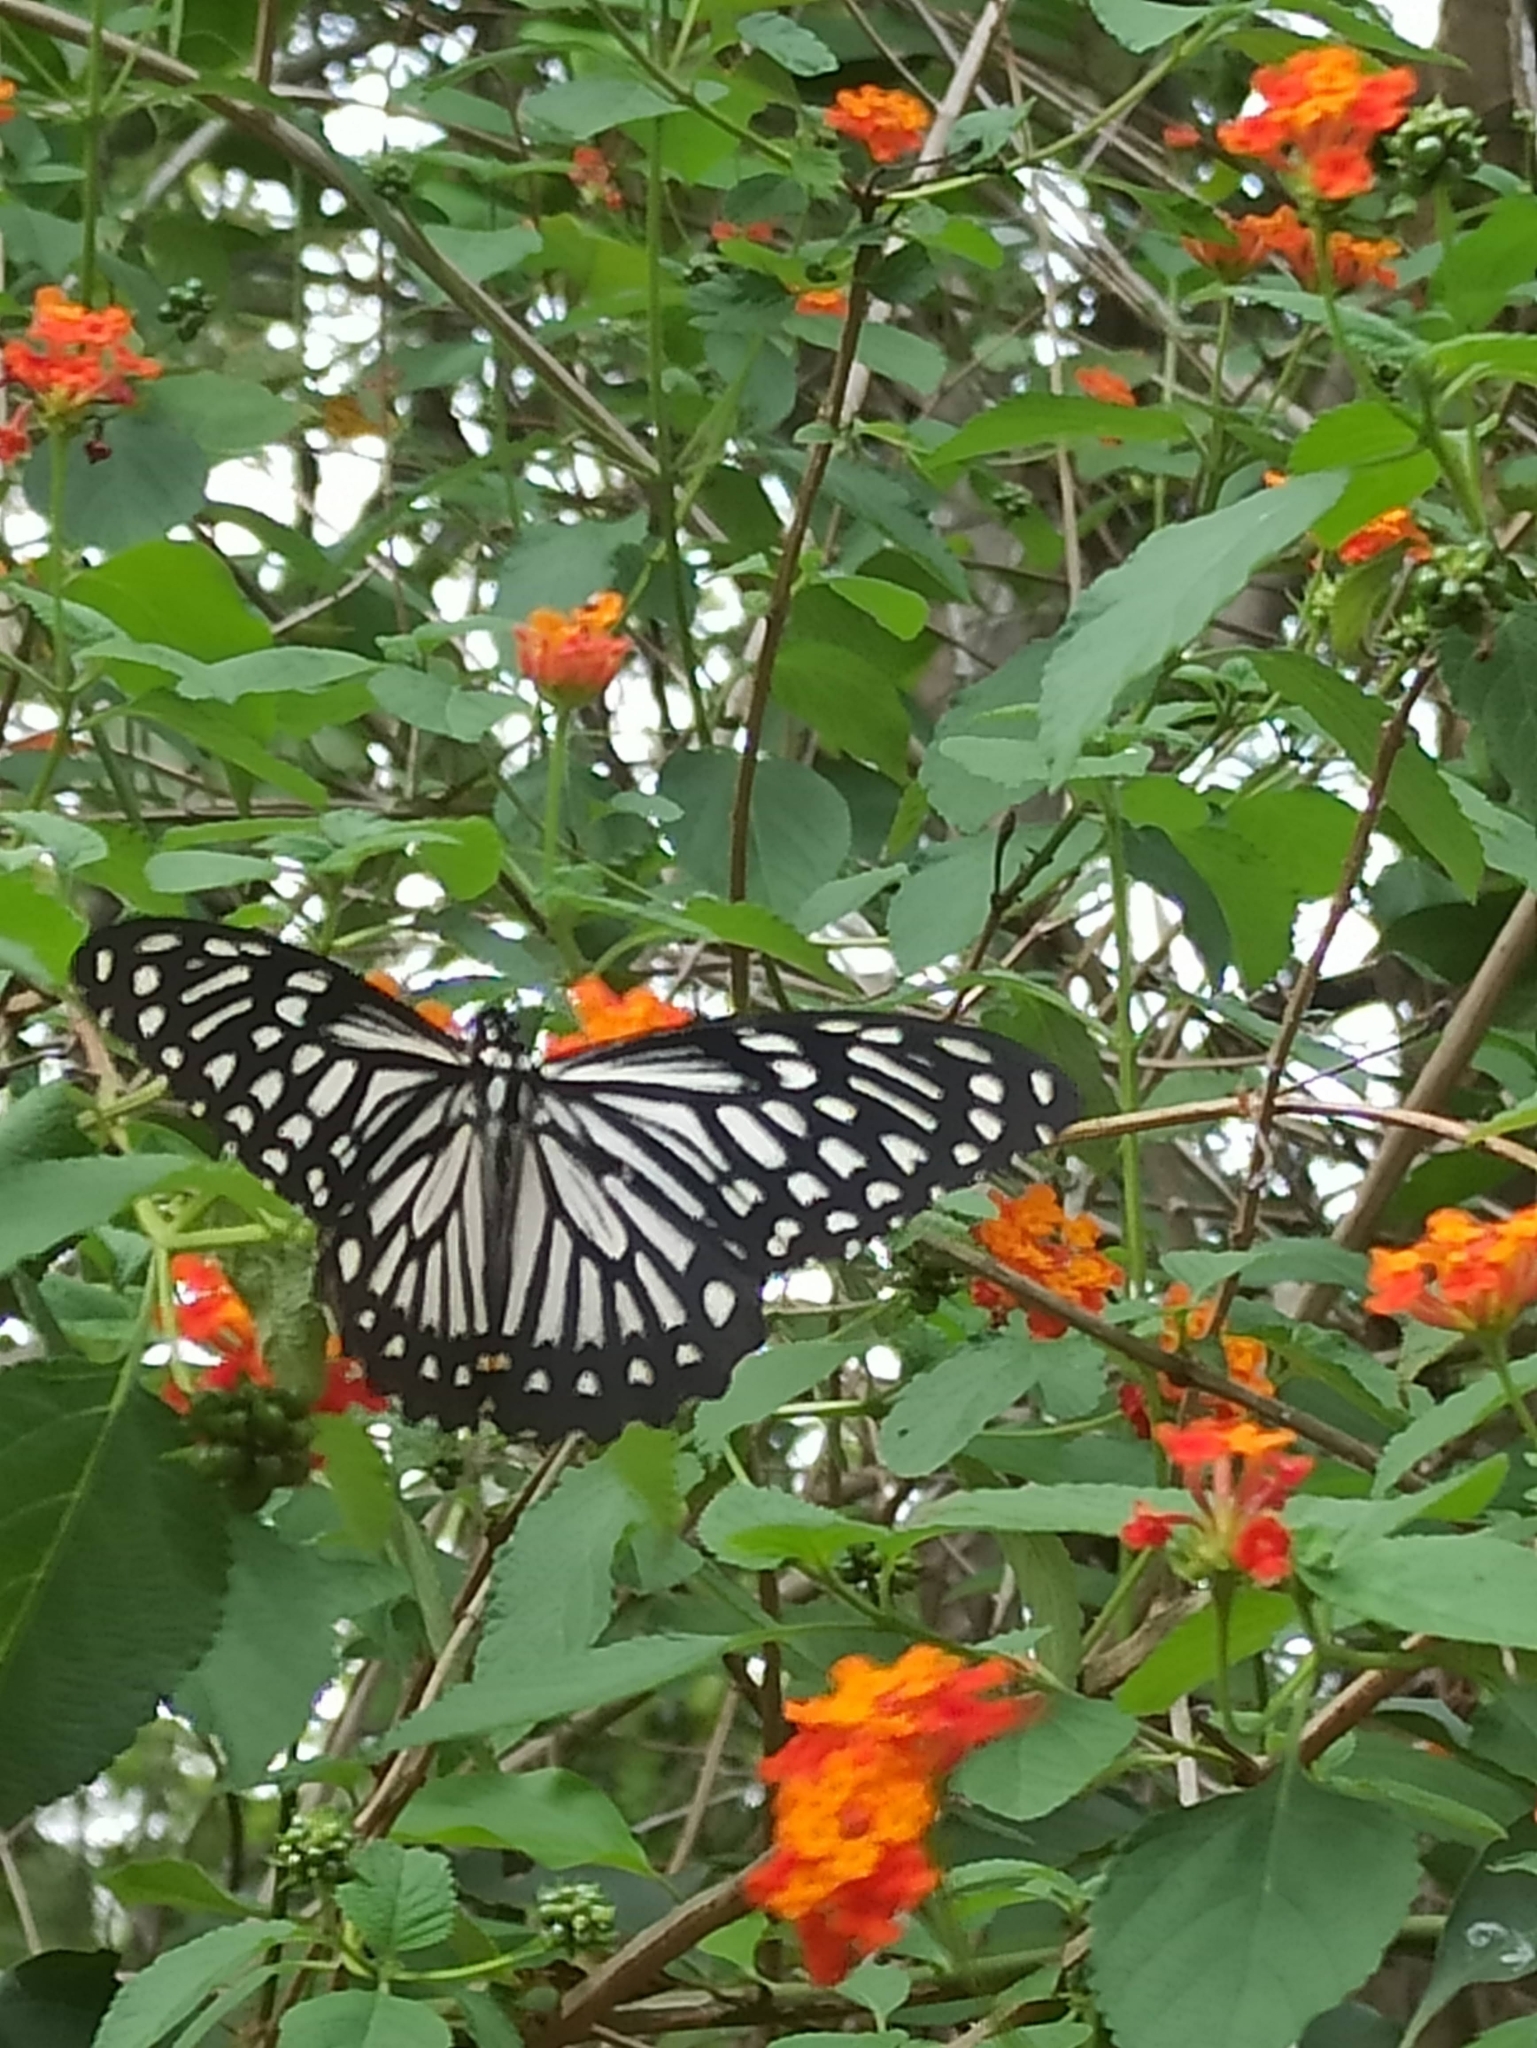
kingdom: Animalia
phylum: Arthropoda
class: Insecta
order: Lepidoptera
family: Papilionidae
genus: Chilasa
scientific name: Chilasa clytia
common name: Common mime
